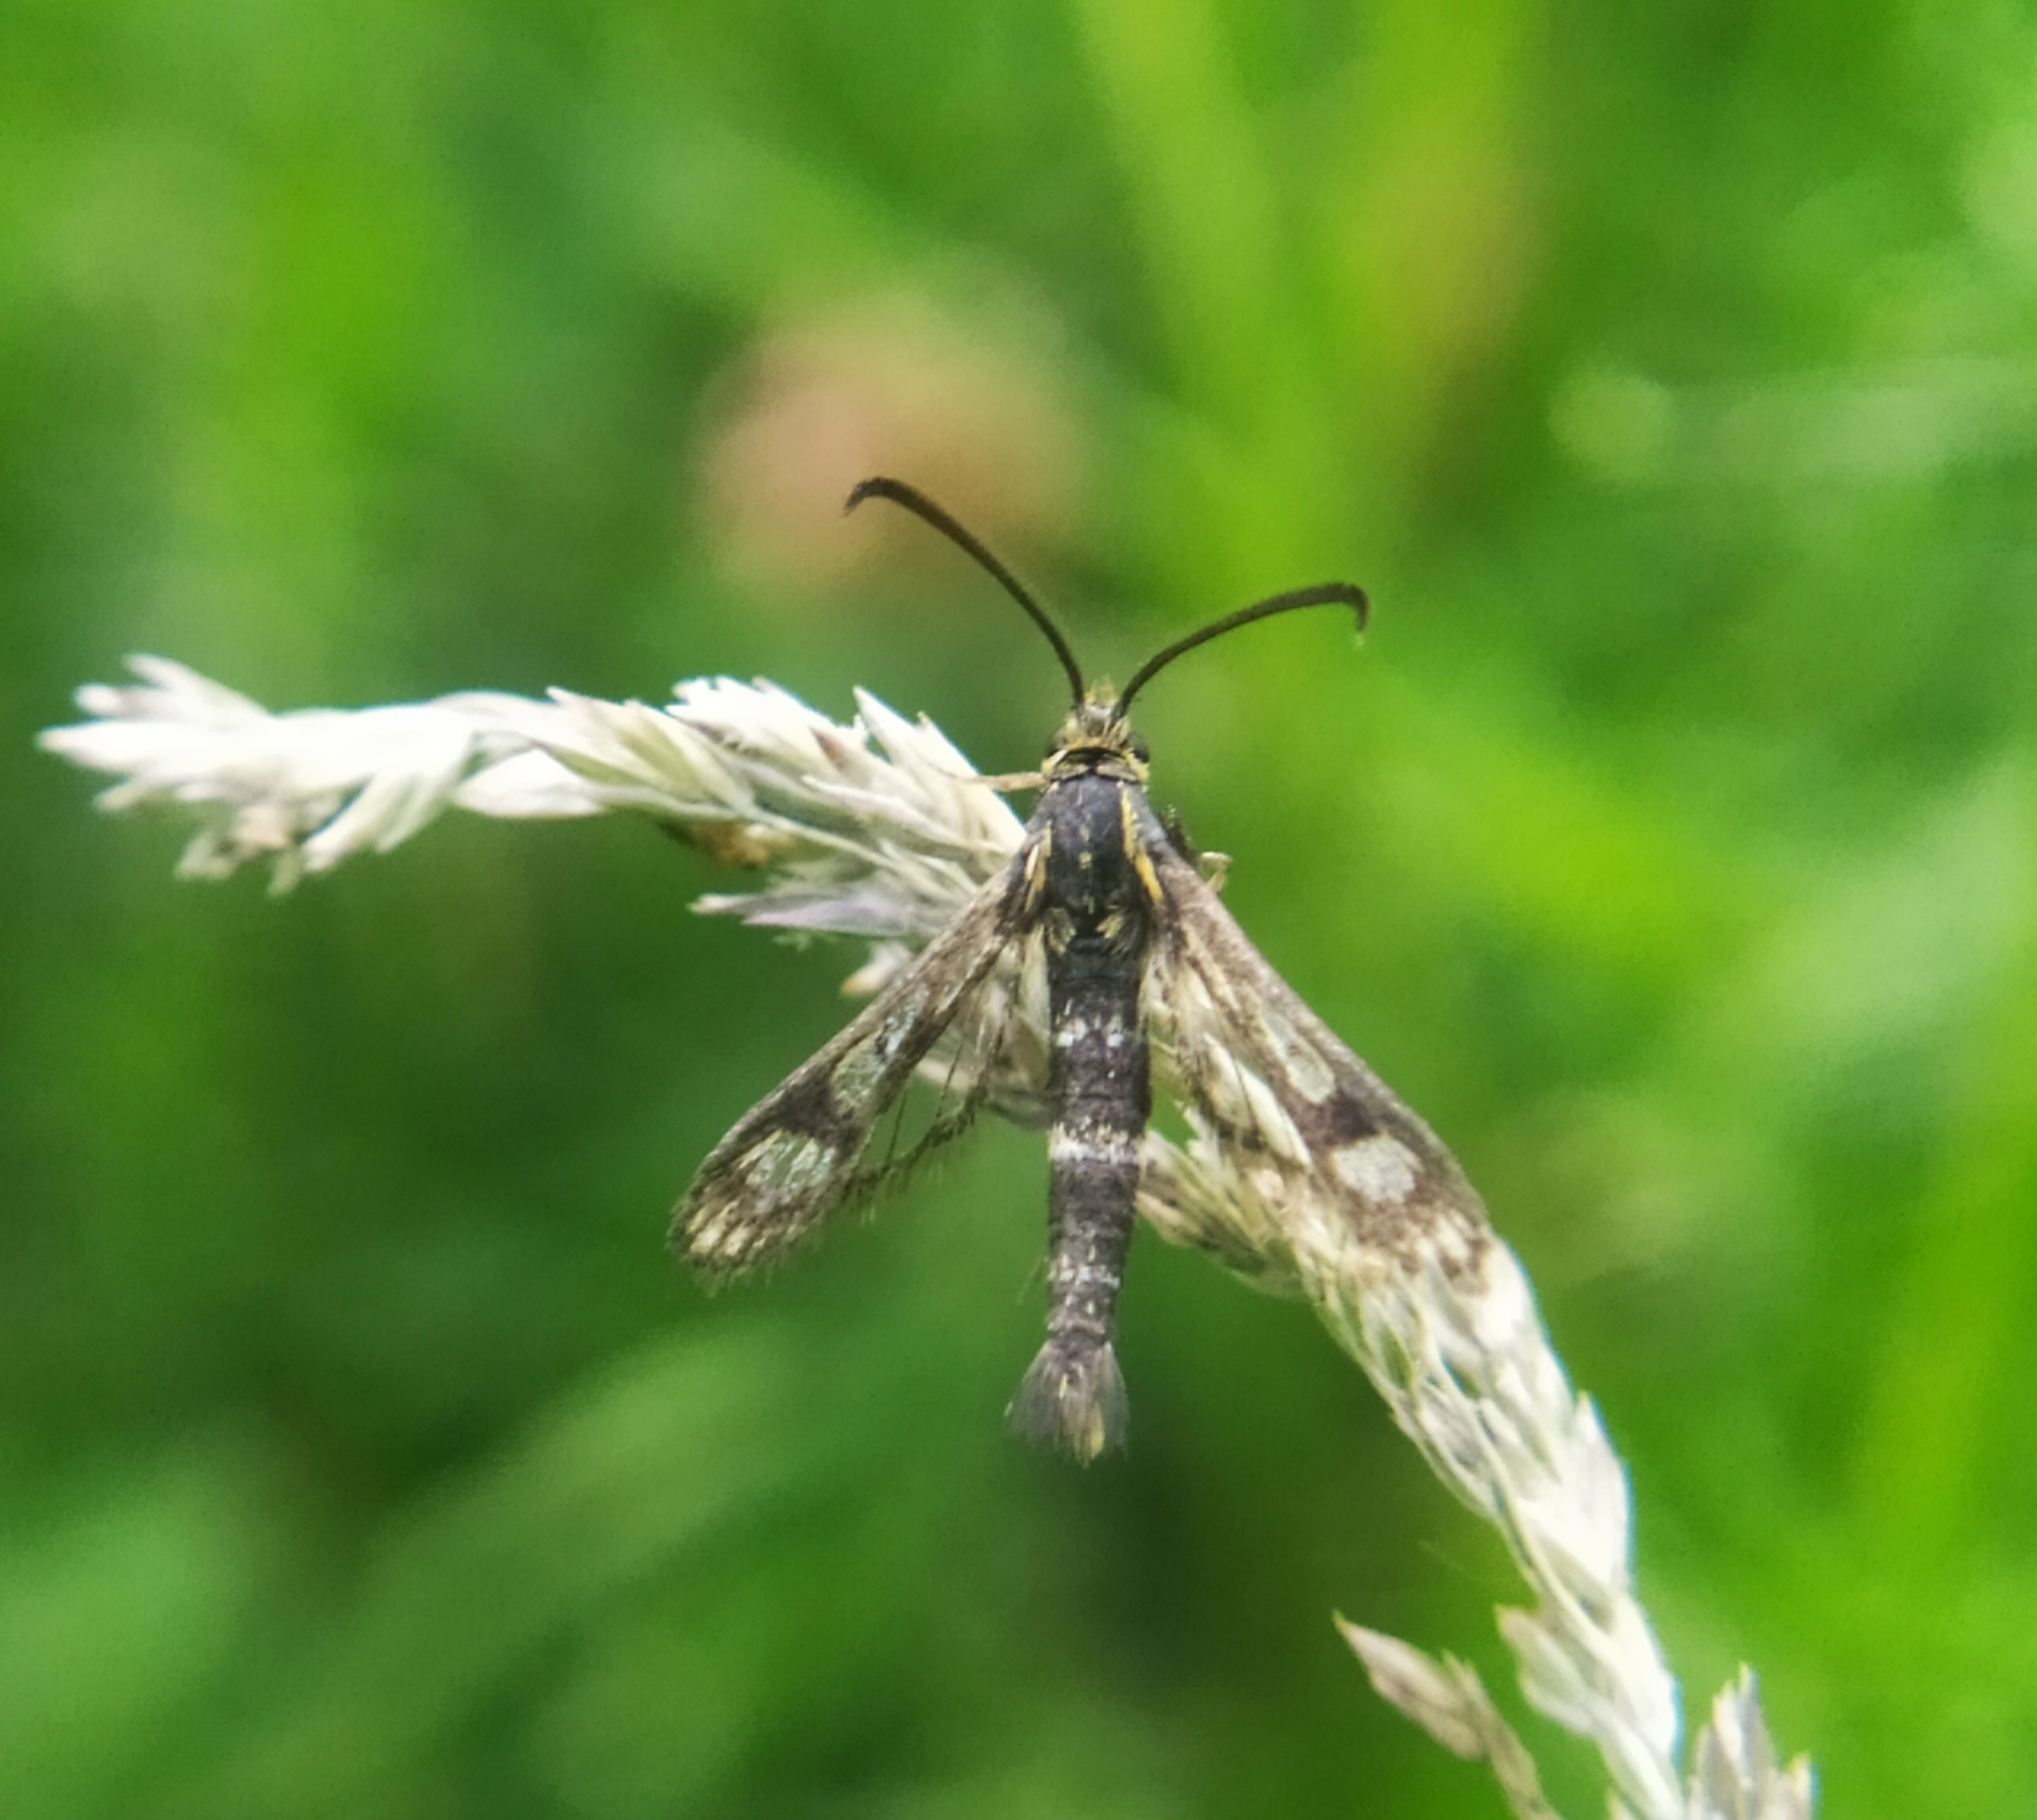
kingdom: Animalia
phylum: Arthropoda
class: Insecta
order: Lepidoptera
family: Sesiidae
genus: Chamaesphecia
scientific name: Chamaesphecia empiformis
